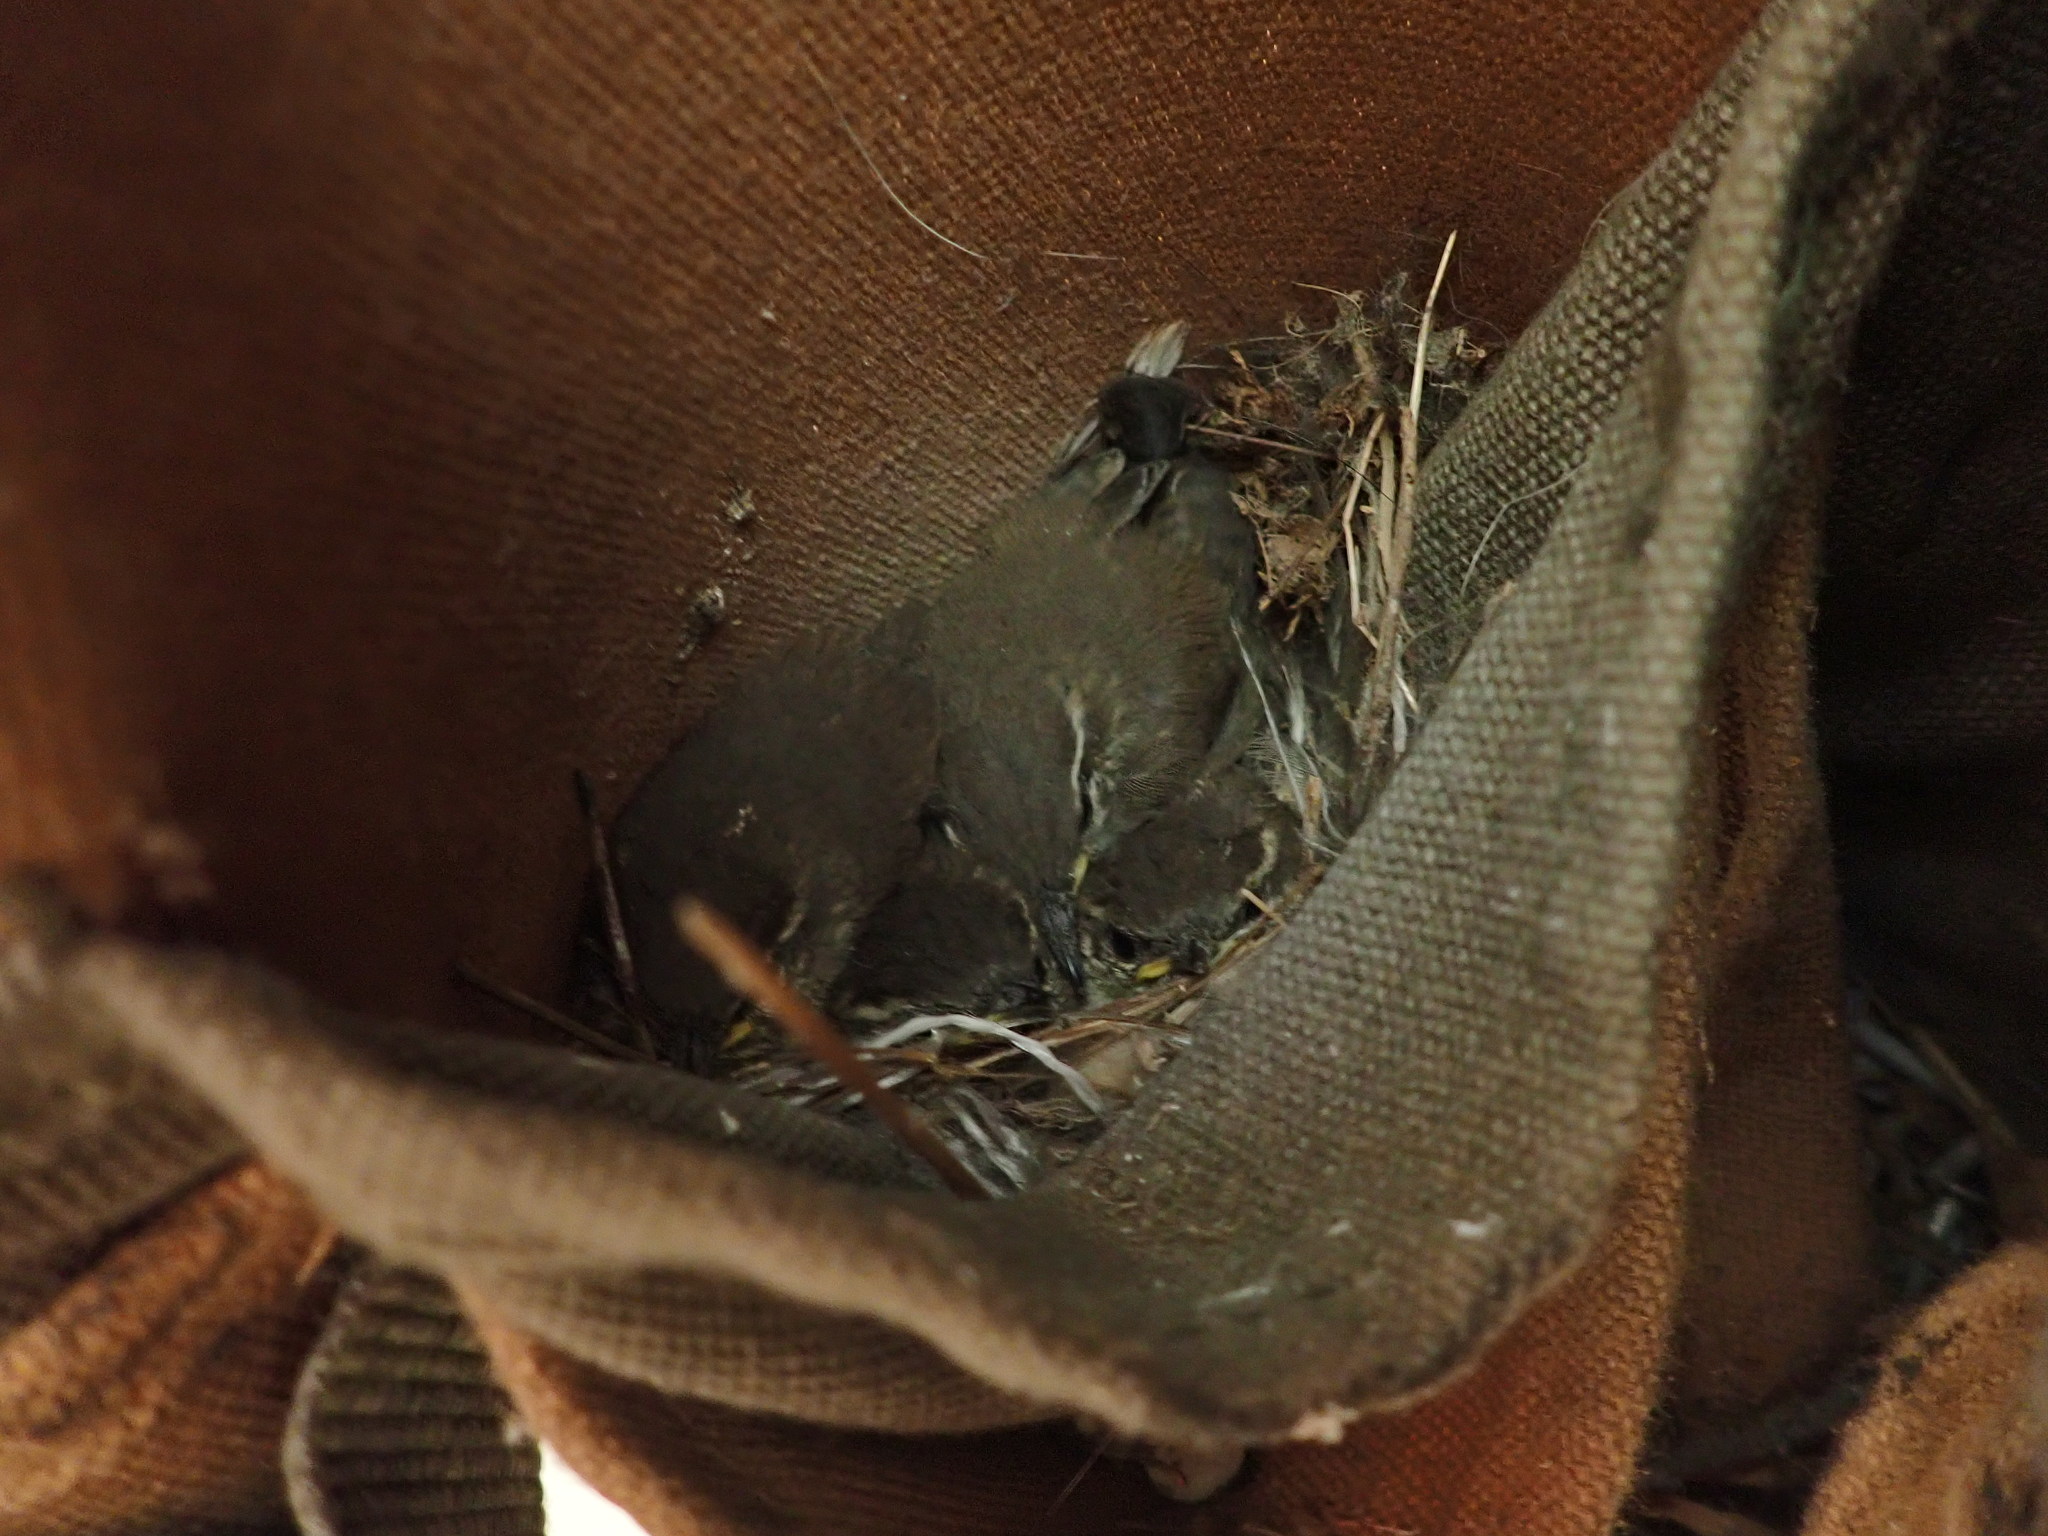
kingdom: Animalia
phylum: Chordata
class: Aves
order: Passeriformes
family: Troglodytidae
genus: Thryomanes
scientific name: Thryomanes bewickii
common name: Bewick's wren
